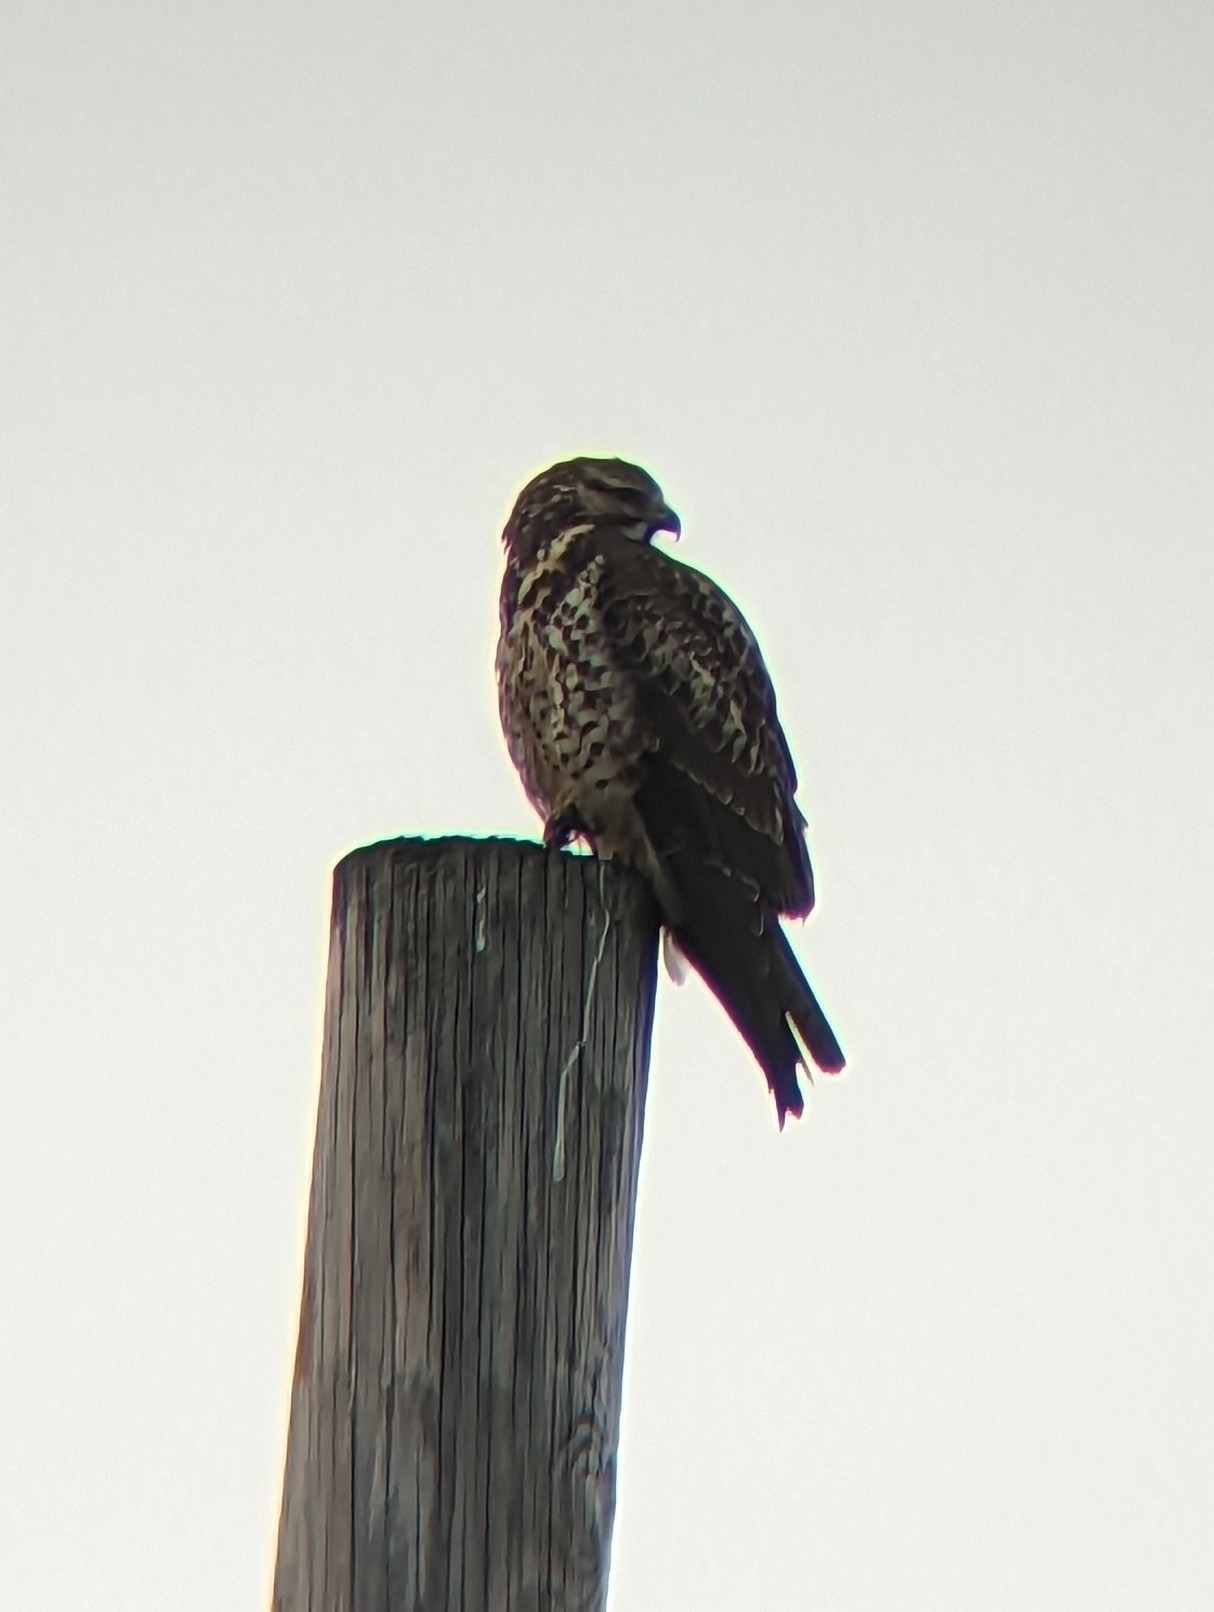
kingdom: Animalia
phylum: Chordata
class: Aves
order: Accipitriformes
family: Accipitridae
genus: Buteo
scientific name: Buteo swainsoni
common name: Swainson's hawk
